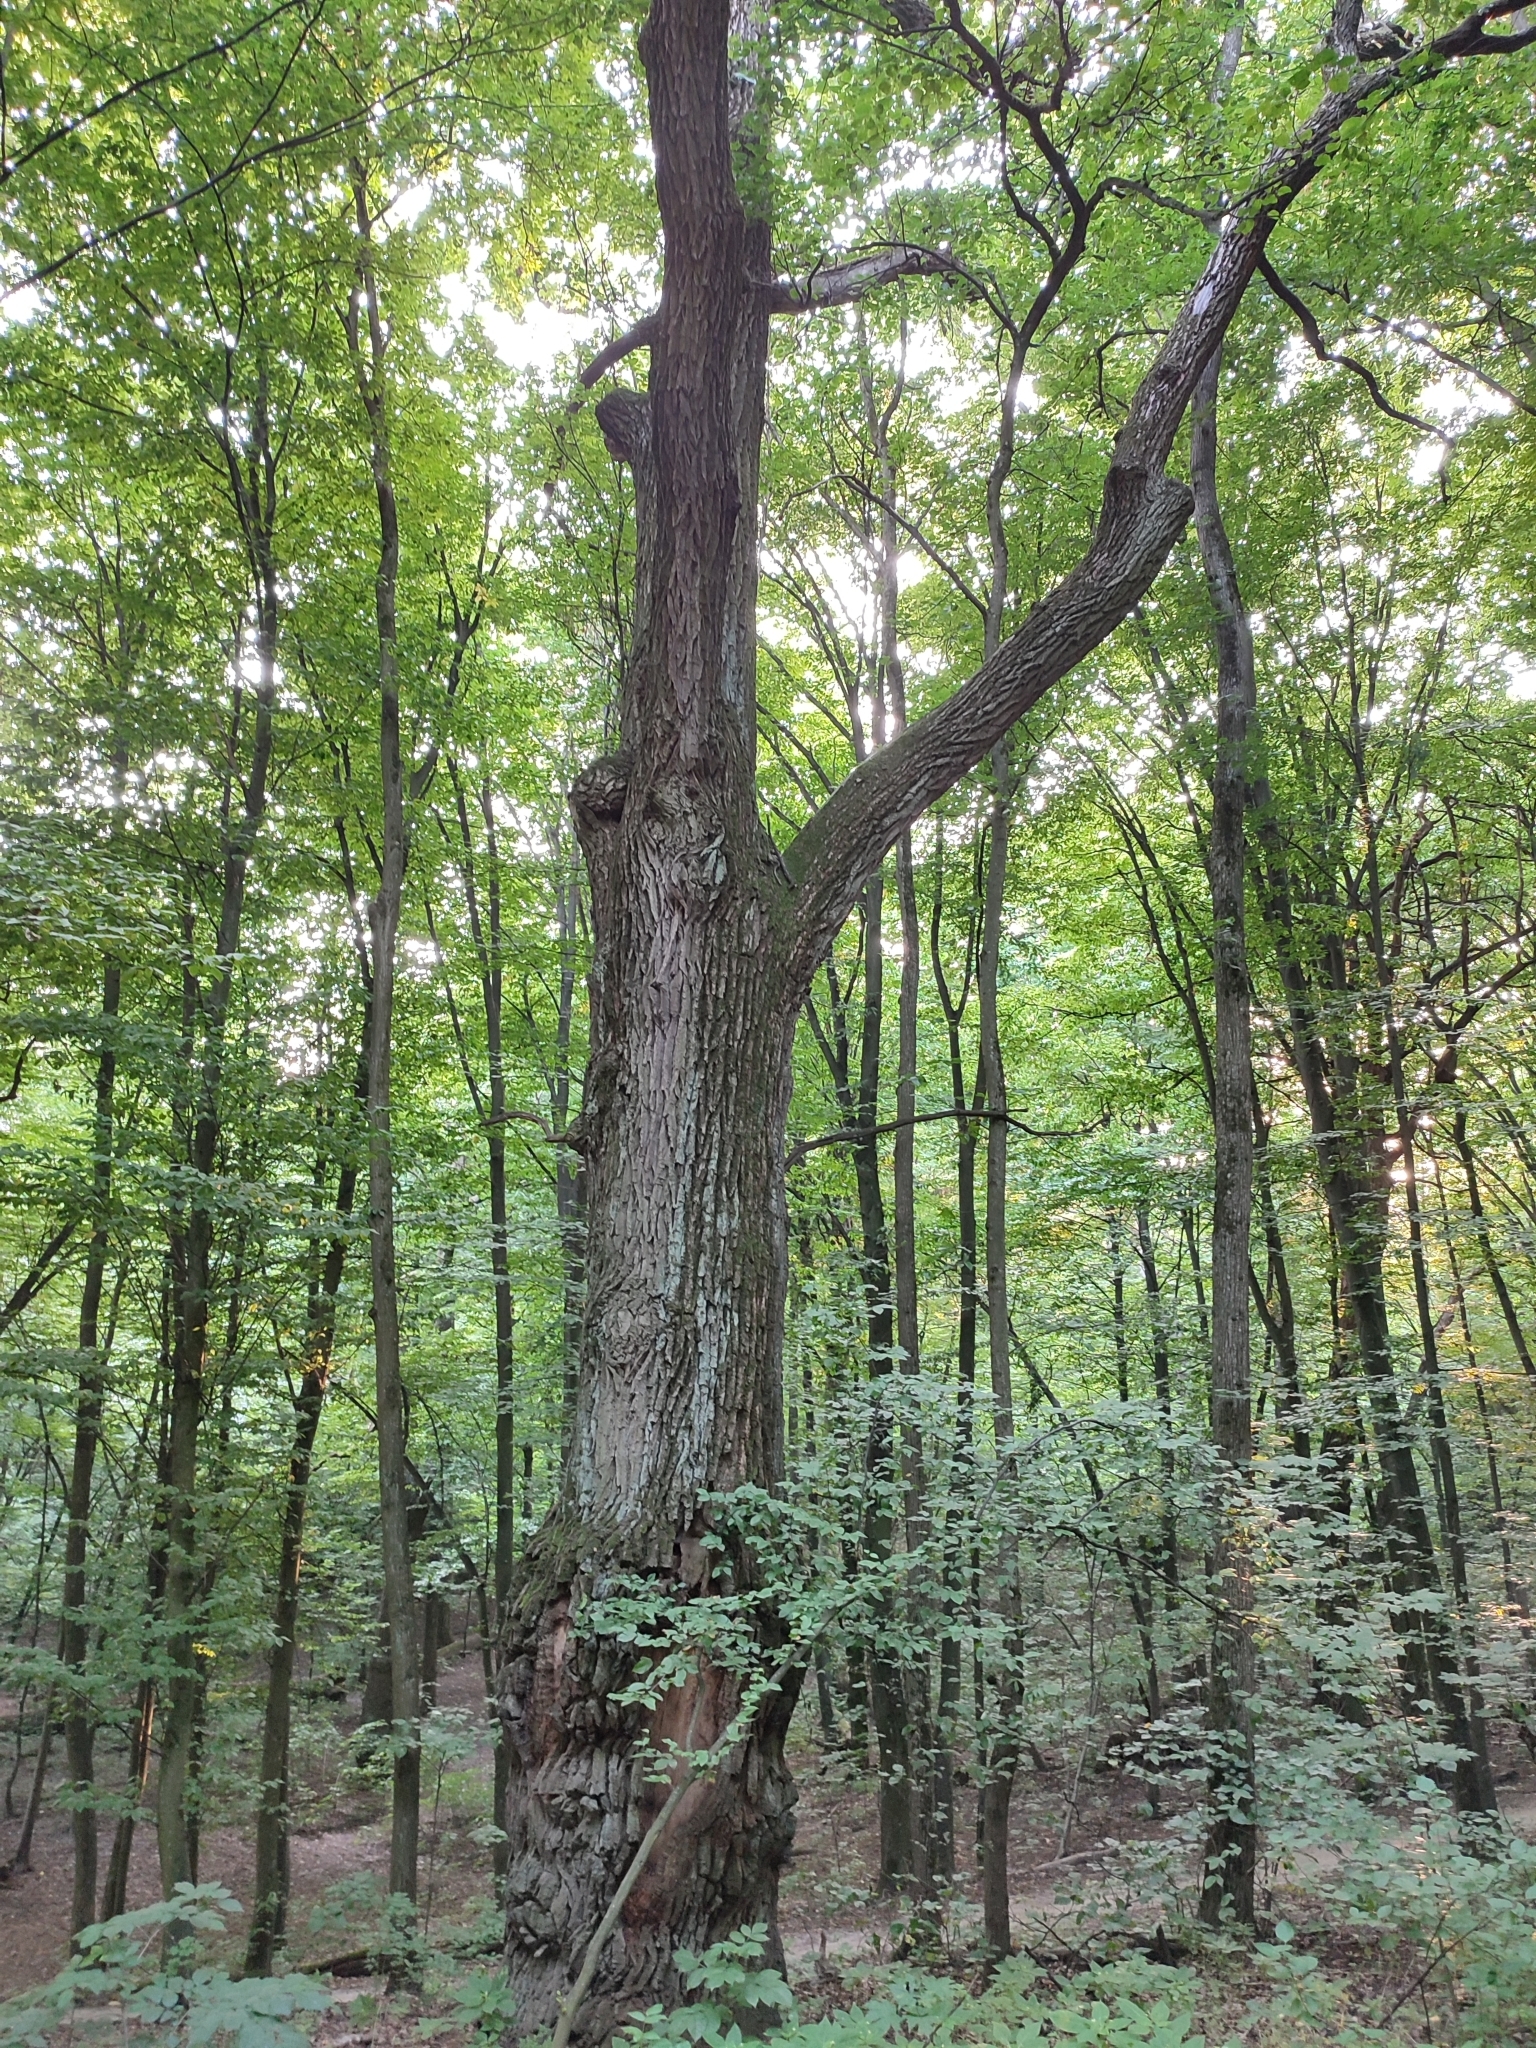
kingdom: Plantae
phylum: Tracheophyta
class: Magnoliopsida
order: Fagales
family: Fagaceae
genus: Quercus
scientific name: Quercus robur
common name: Pedunculate oak
